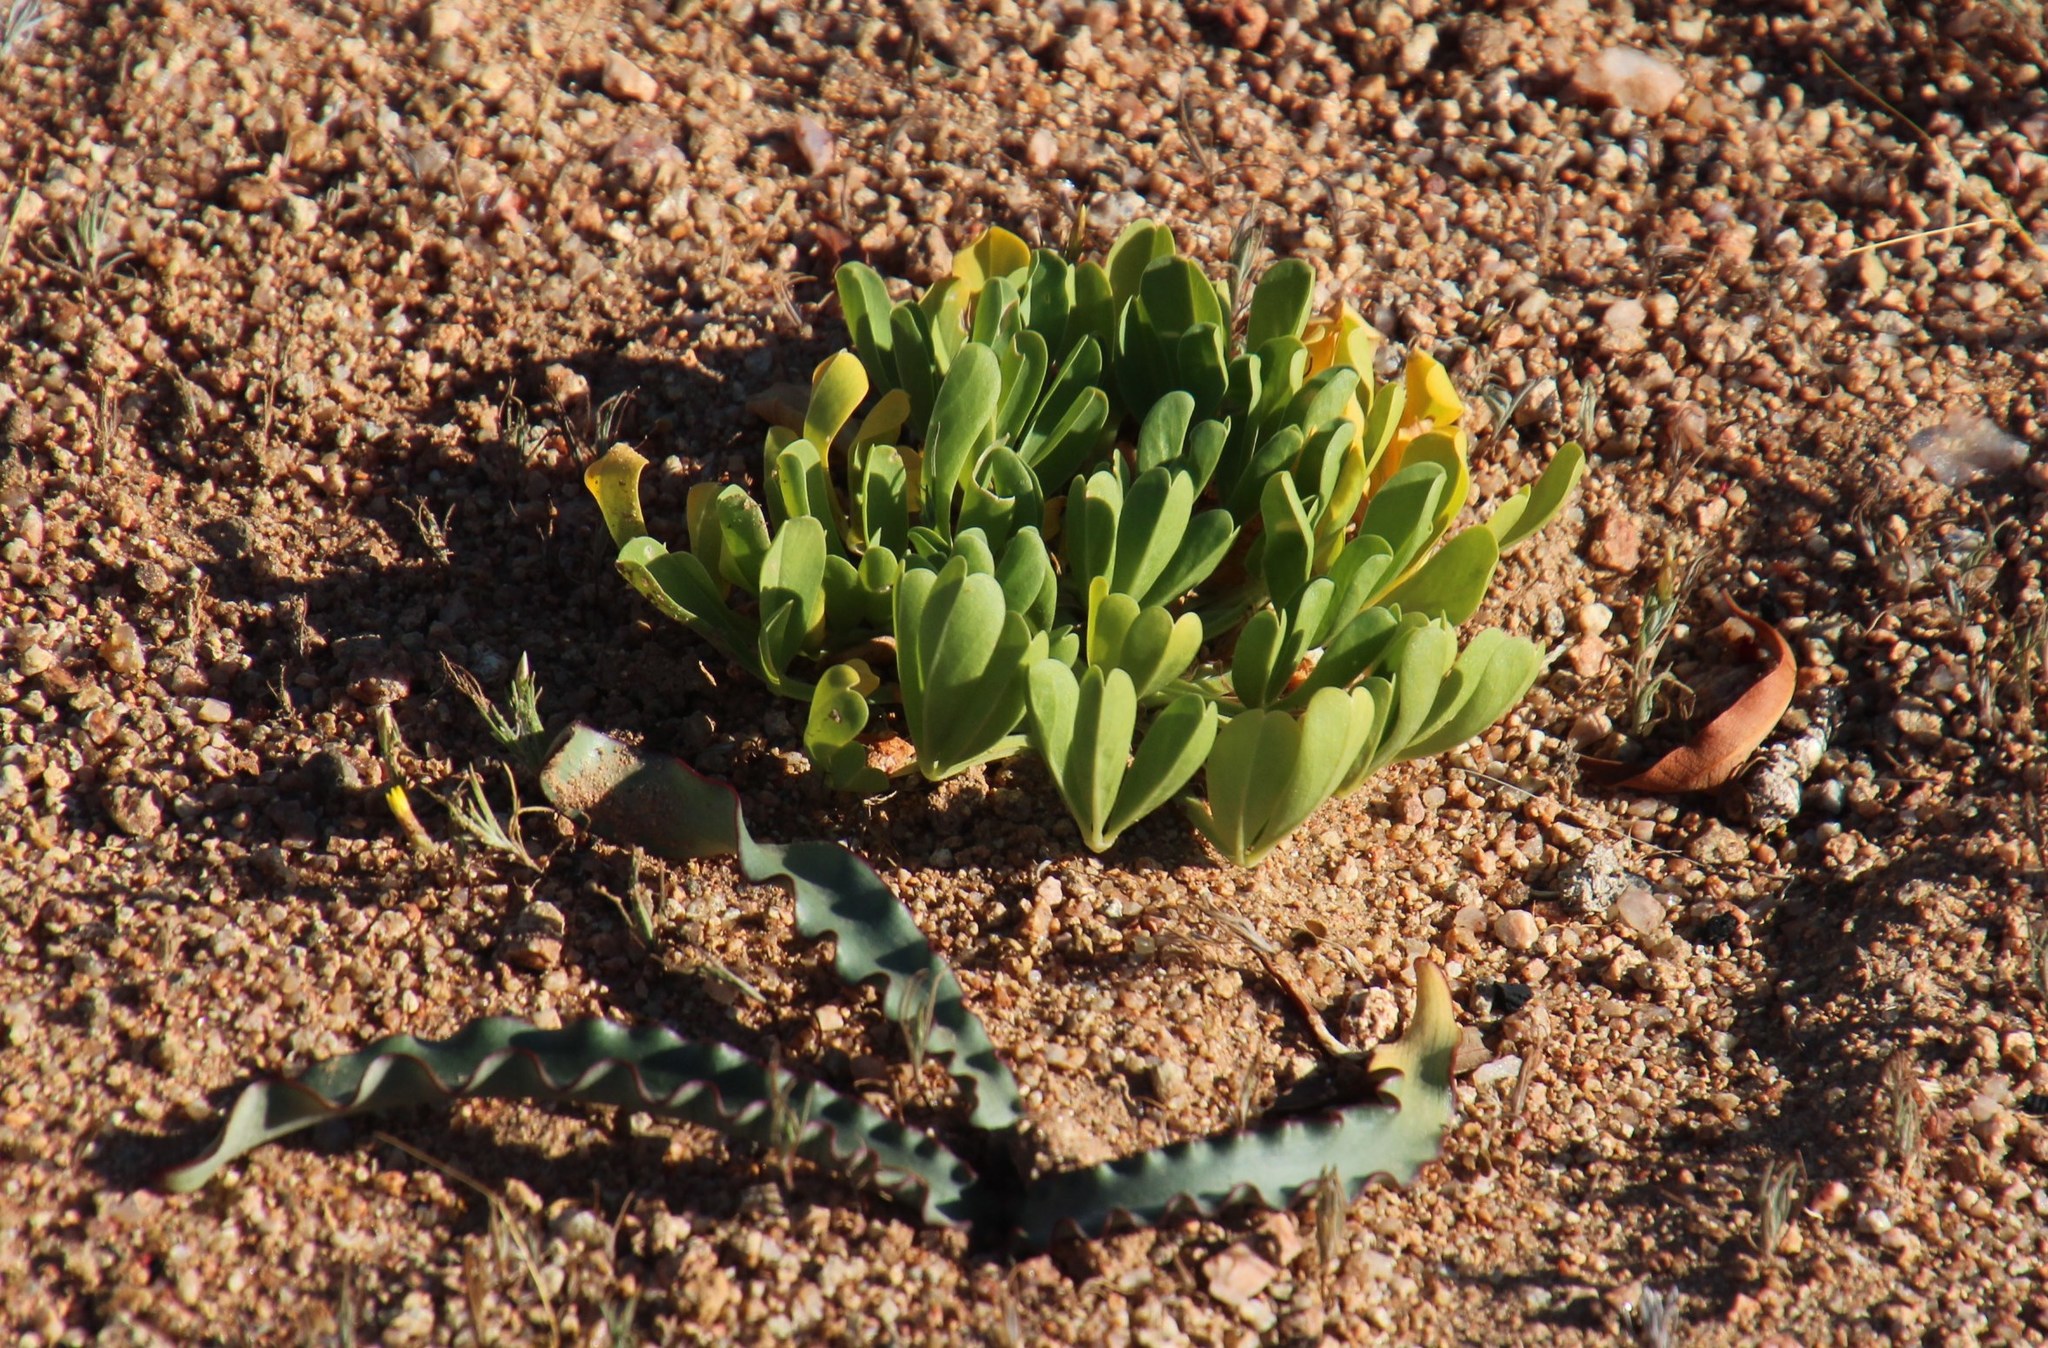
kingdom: Plantae
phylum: Tracheophyta
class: Magnoliopsida
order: Oxalidales
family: Oxalidaceae
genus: Oxalis
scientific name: Oxalis louisae
